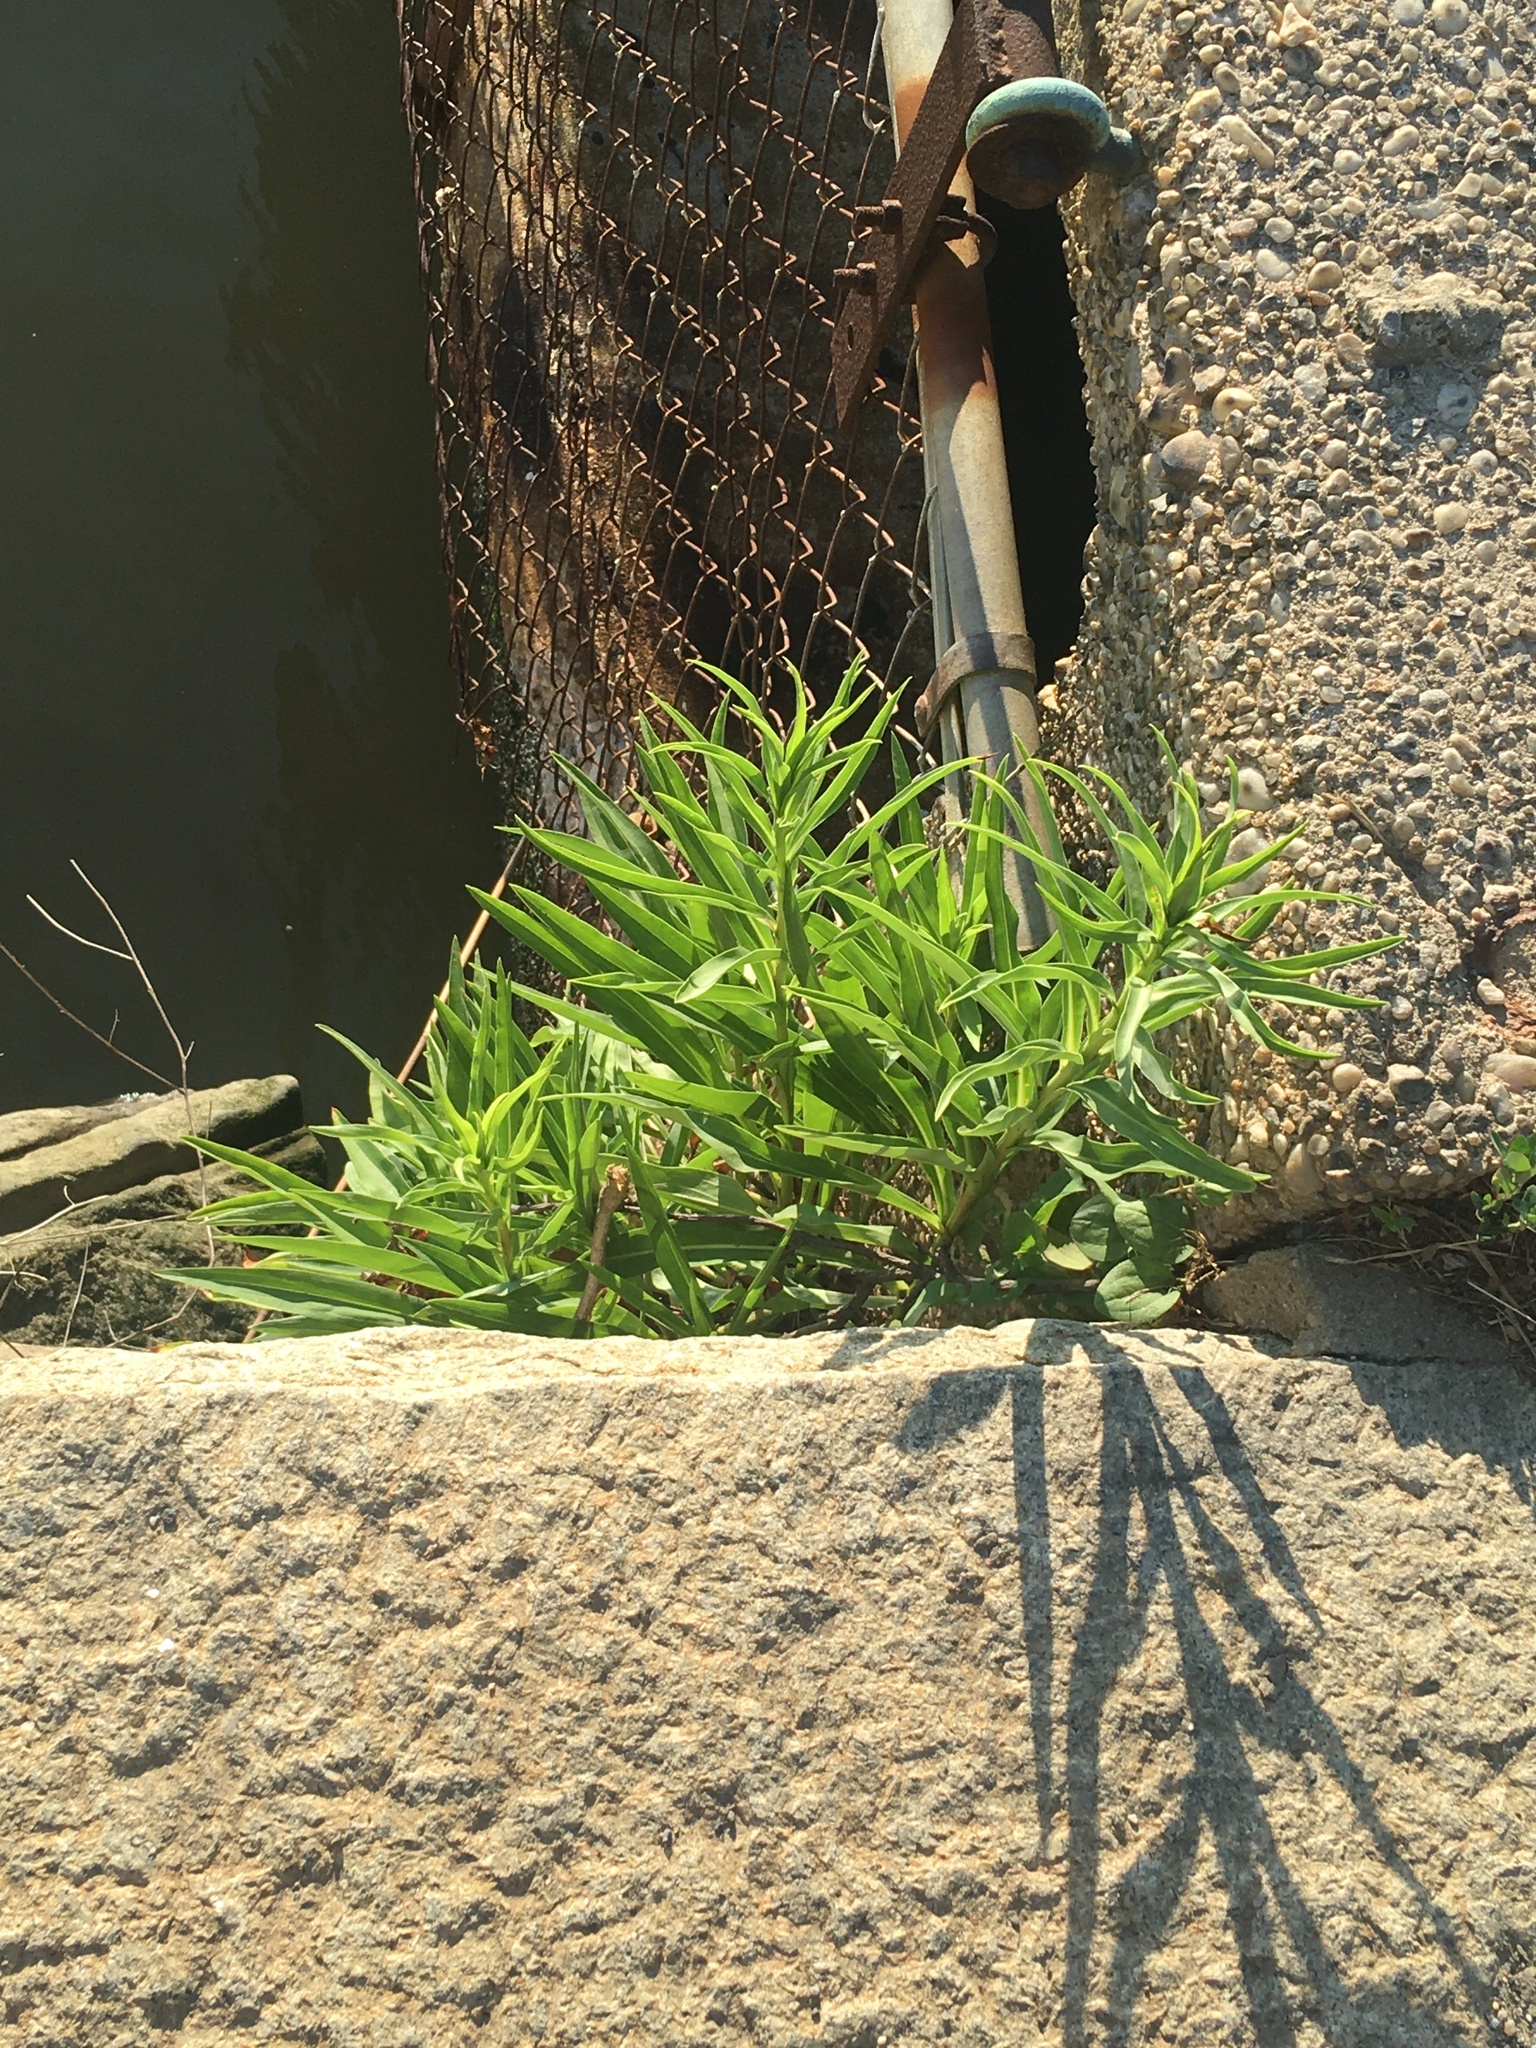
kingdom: Plantae
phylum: Tracheophyta
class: Magnoliopsida
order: Asterales
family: Asteraceae
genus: Solidago
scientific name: Solidago sempervirens
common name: Salt-marsh goldenrod
